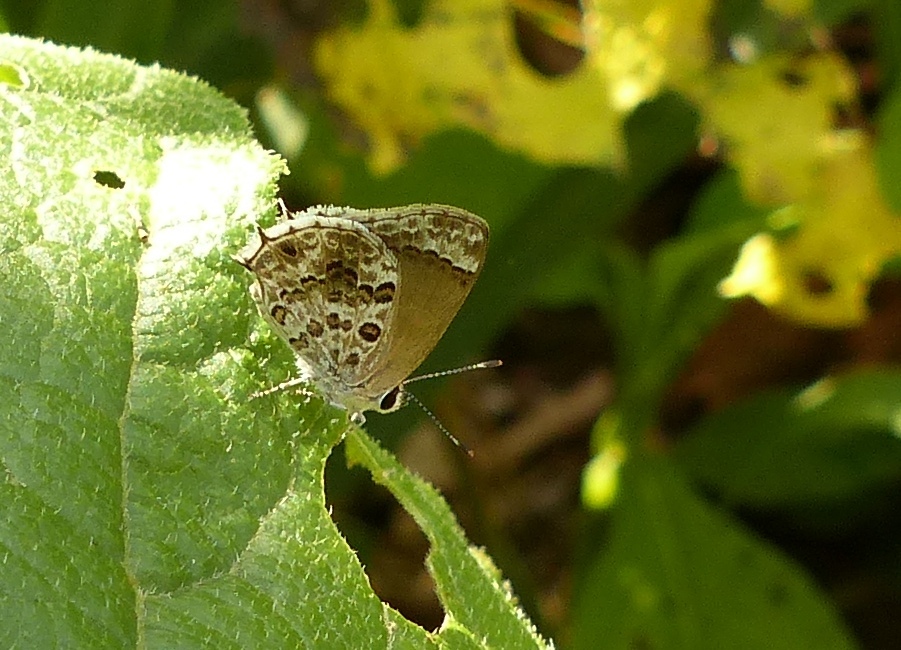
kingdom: Animalia
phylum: Arthropoda
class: Insecta
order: Lepidoptera
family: Lycaenidae
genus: Strymon
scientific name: Strymon astiocha
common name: Gray-spotted scrub-hairstreak
